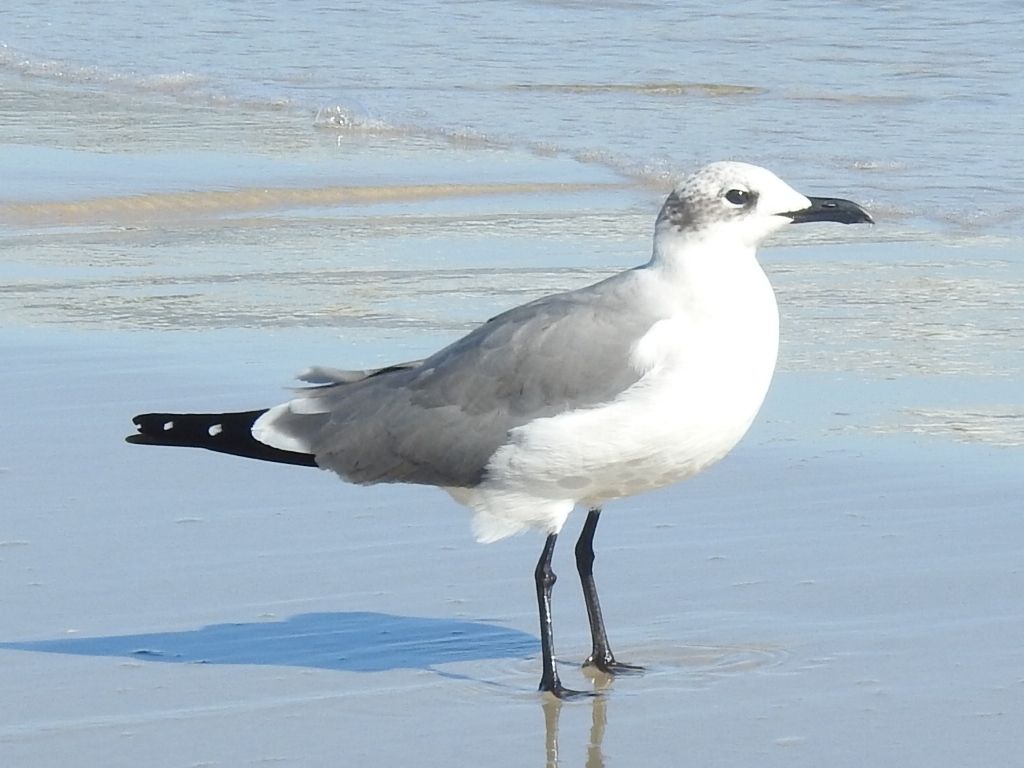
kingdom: Animalia
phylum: Chordata
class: Aves
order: Charadriiformes
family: Laridae
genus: Leucophaeus
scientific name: Leucophaeus atricilla
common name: Laughing gull
